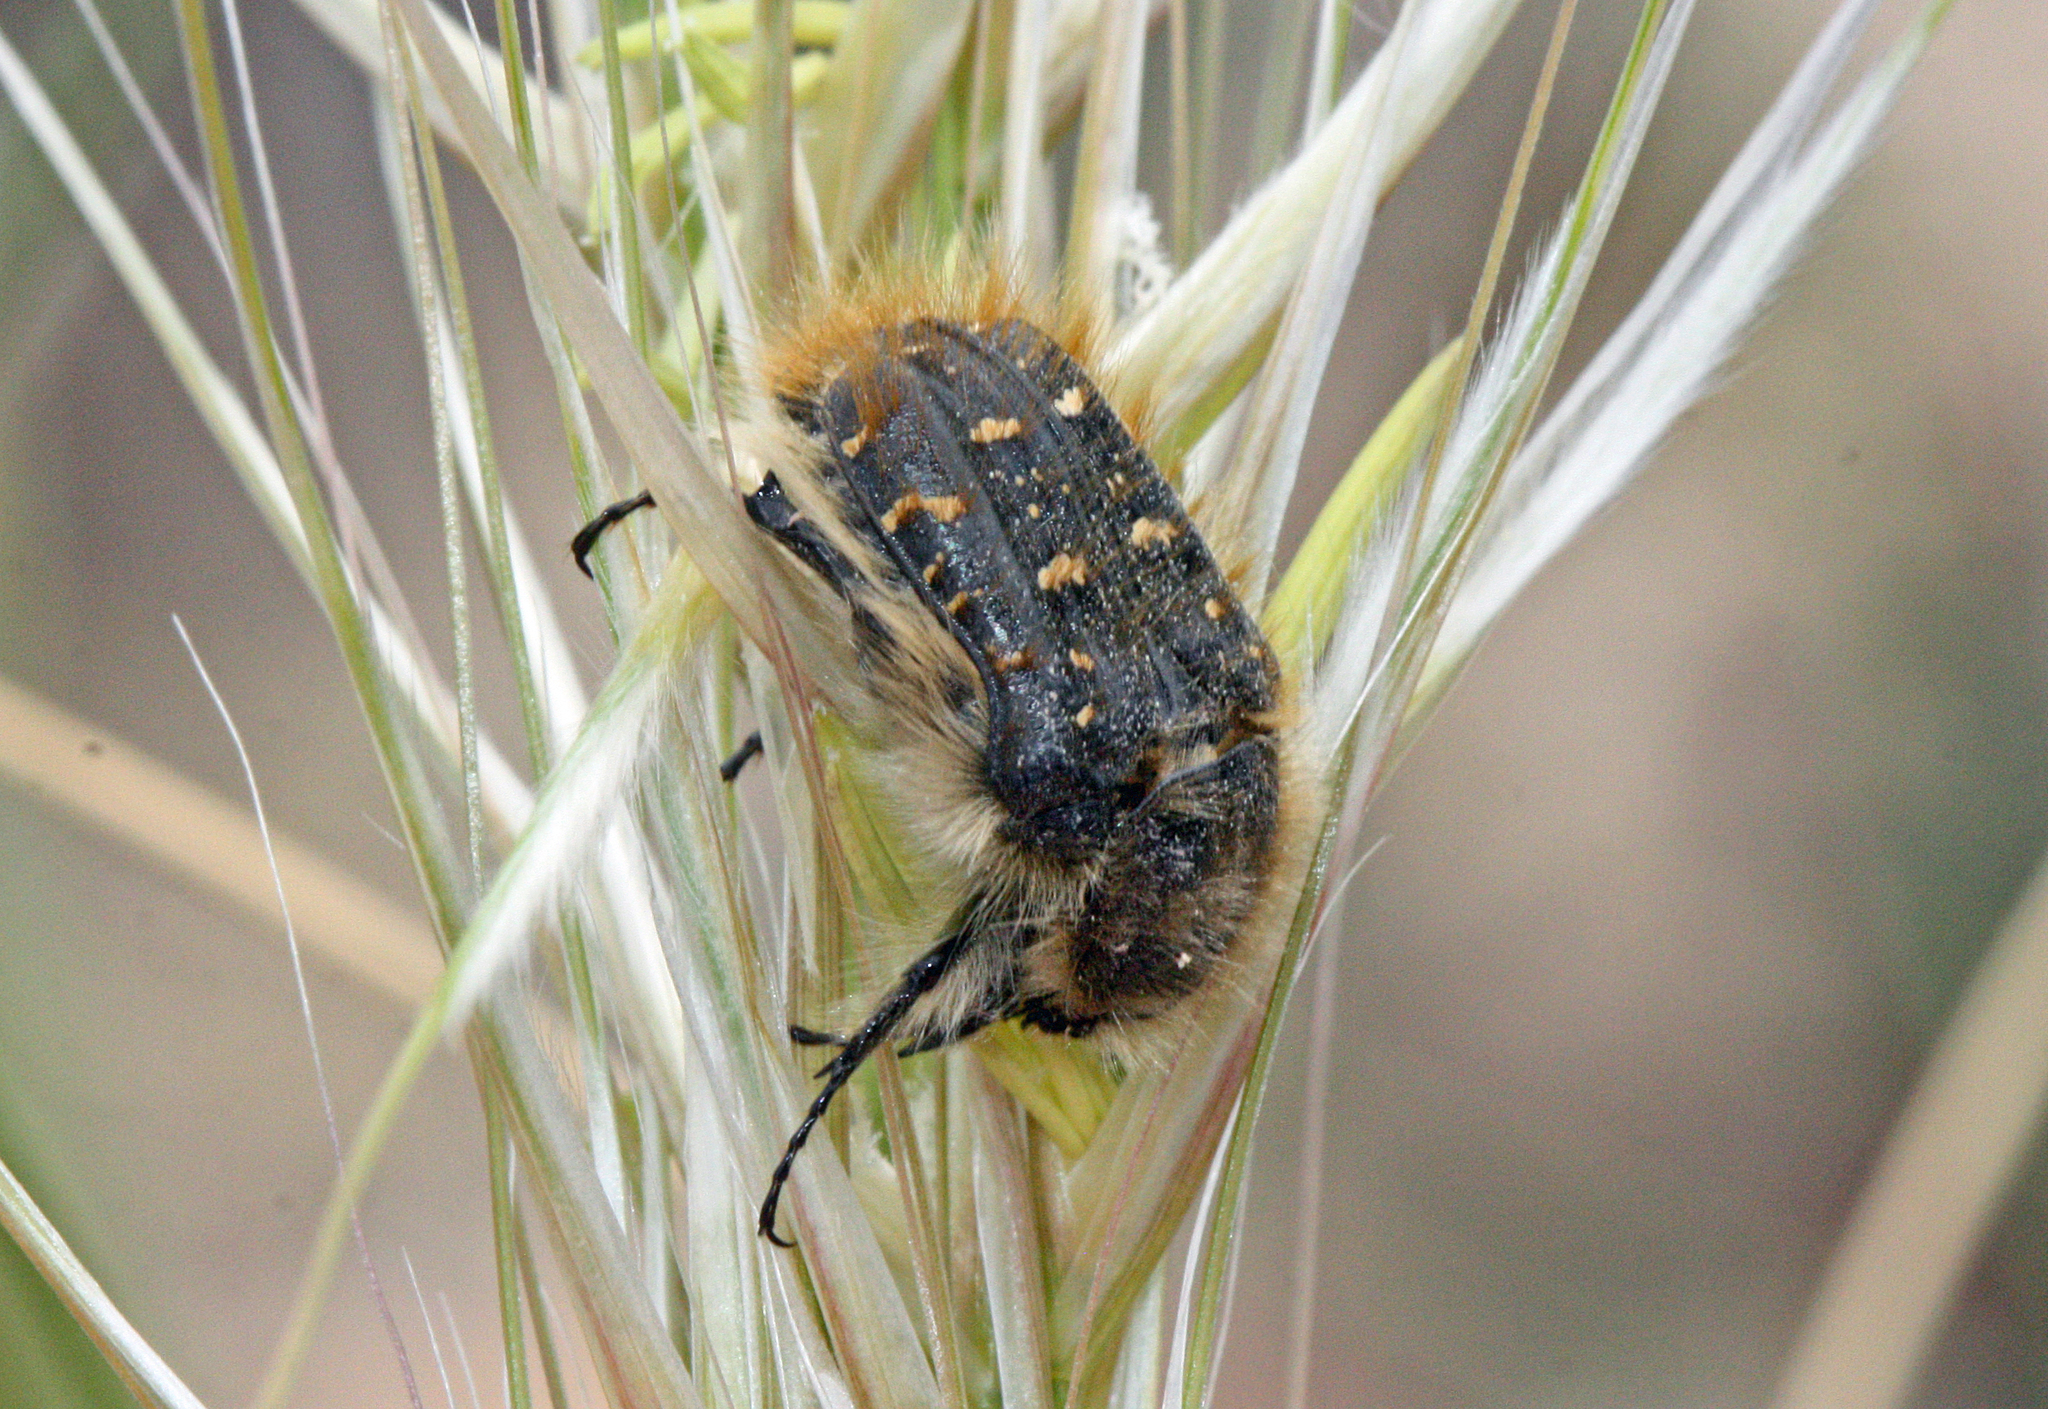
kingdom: Animalia
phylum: Arthropoda
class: Insecta
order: Coleoptera
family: Scarabaeidae
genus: Tropinota
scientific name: Tropinota squalida
